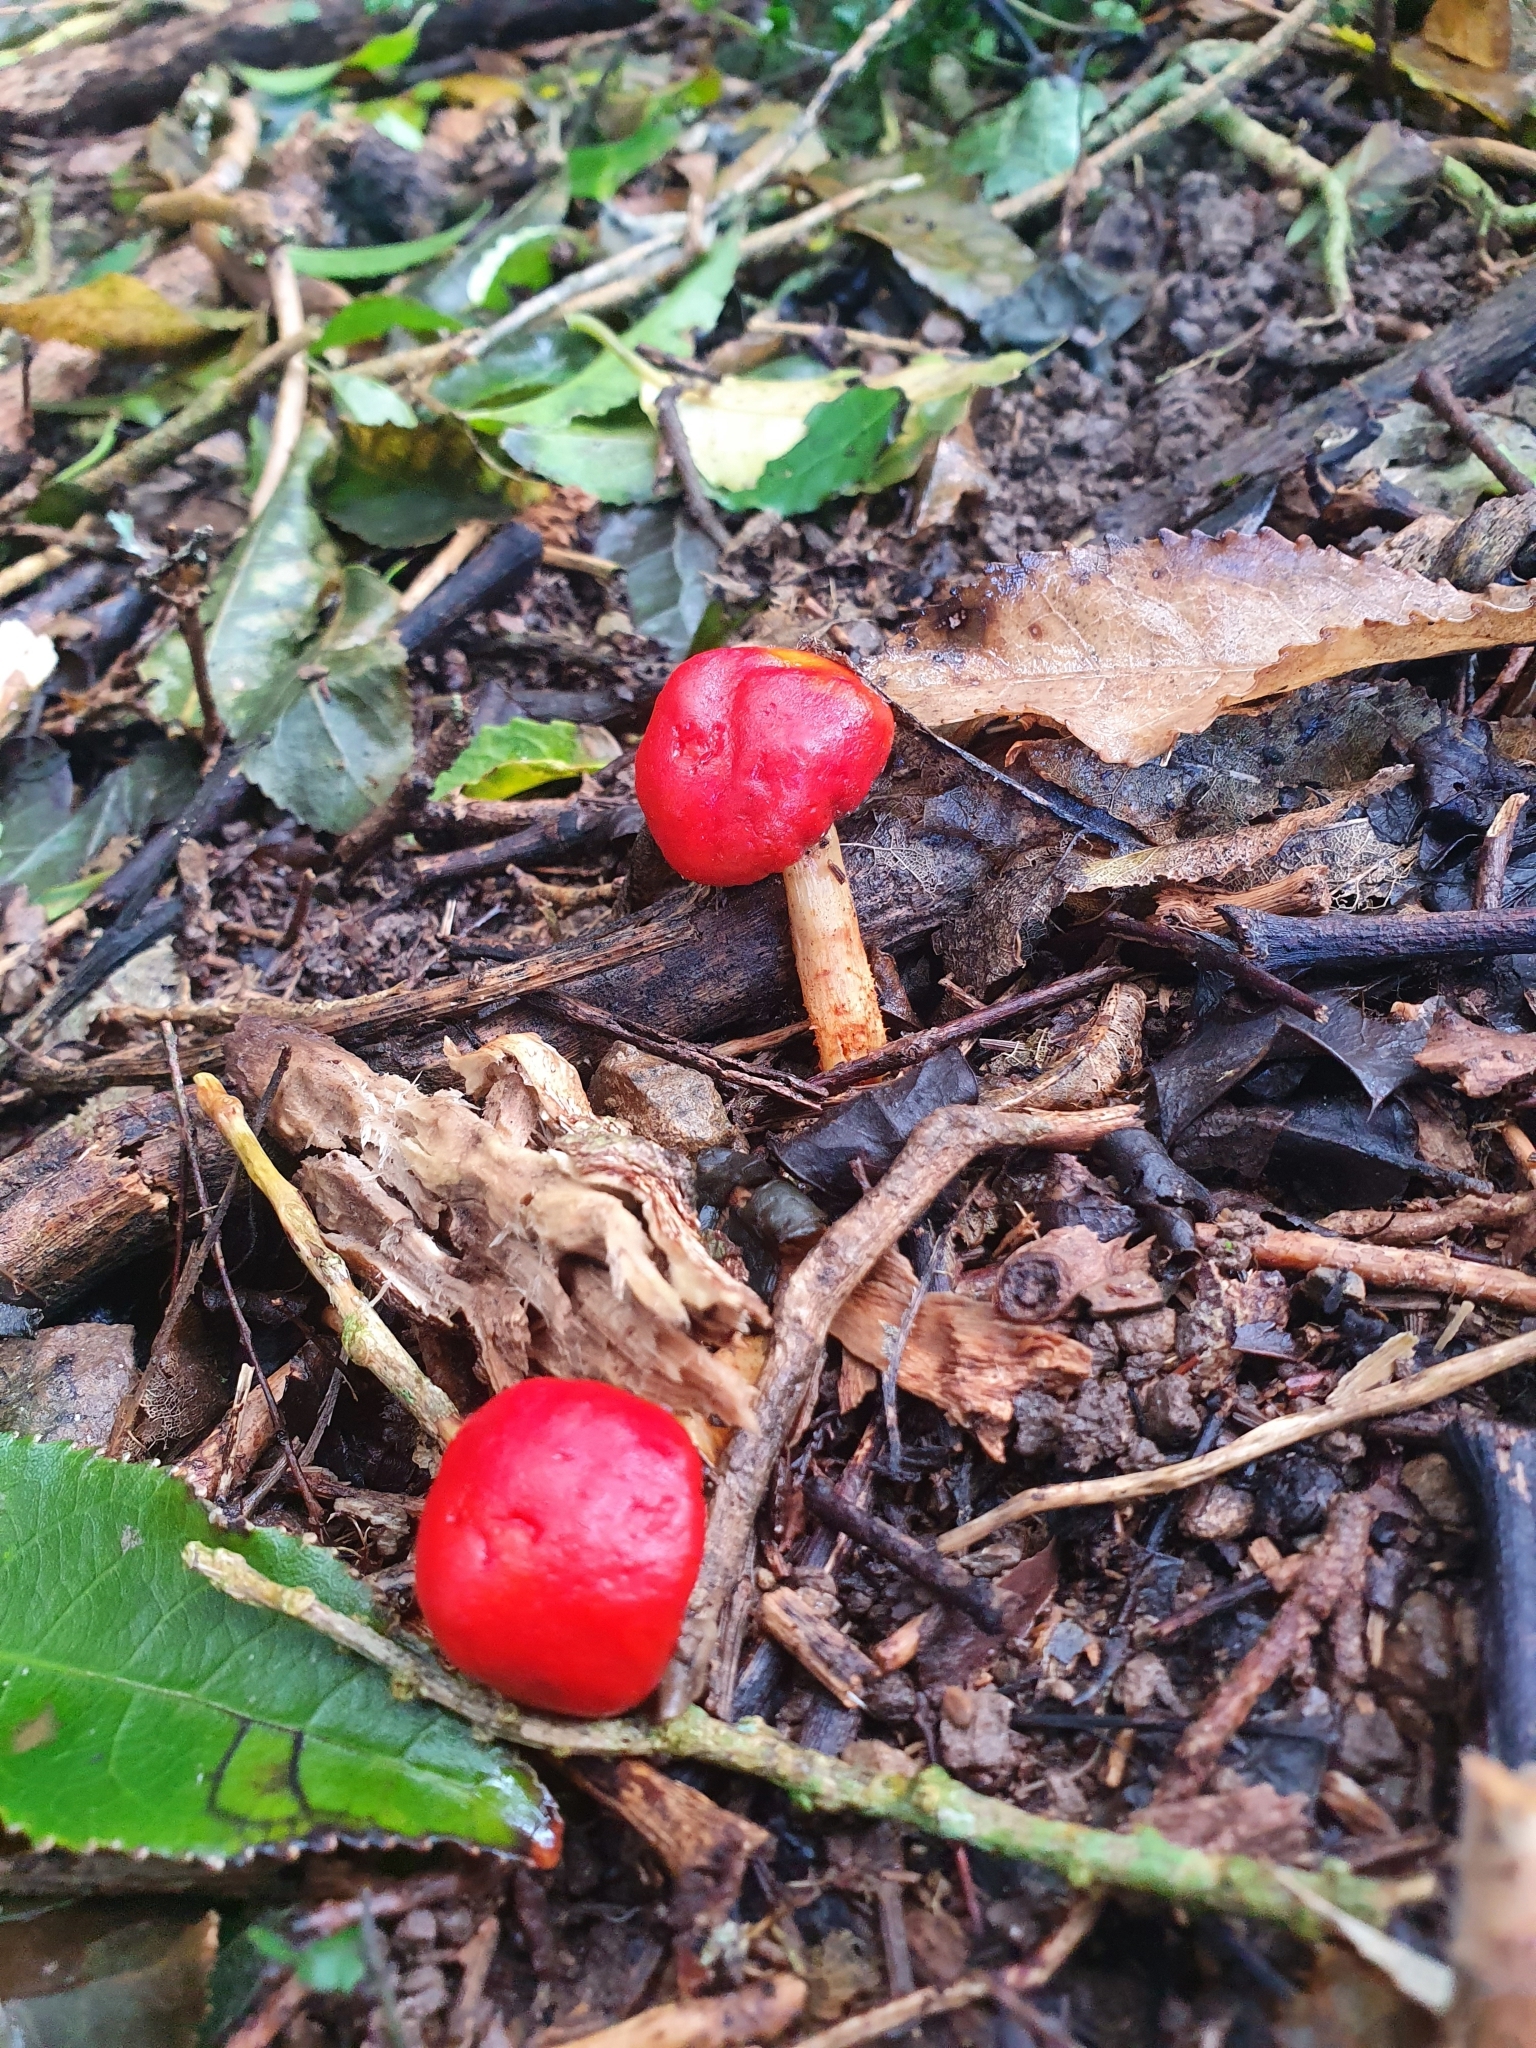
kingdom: Fungi
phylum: Basidiomycota
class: Agaricomycetes
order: Agaricales
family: Strophariaceae
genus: Leratiomyces
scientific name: Leratiomyces erythrocephalus
